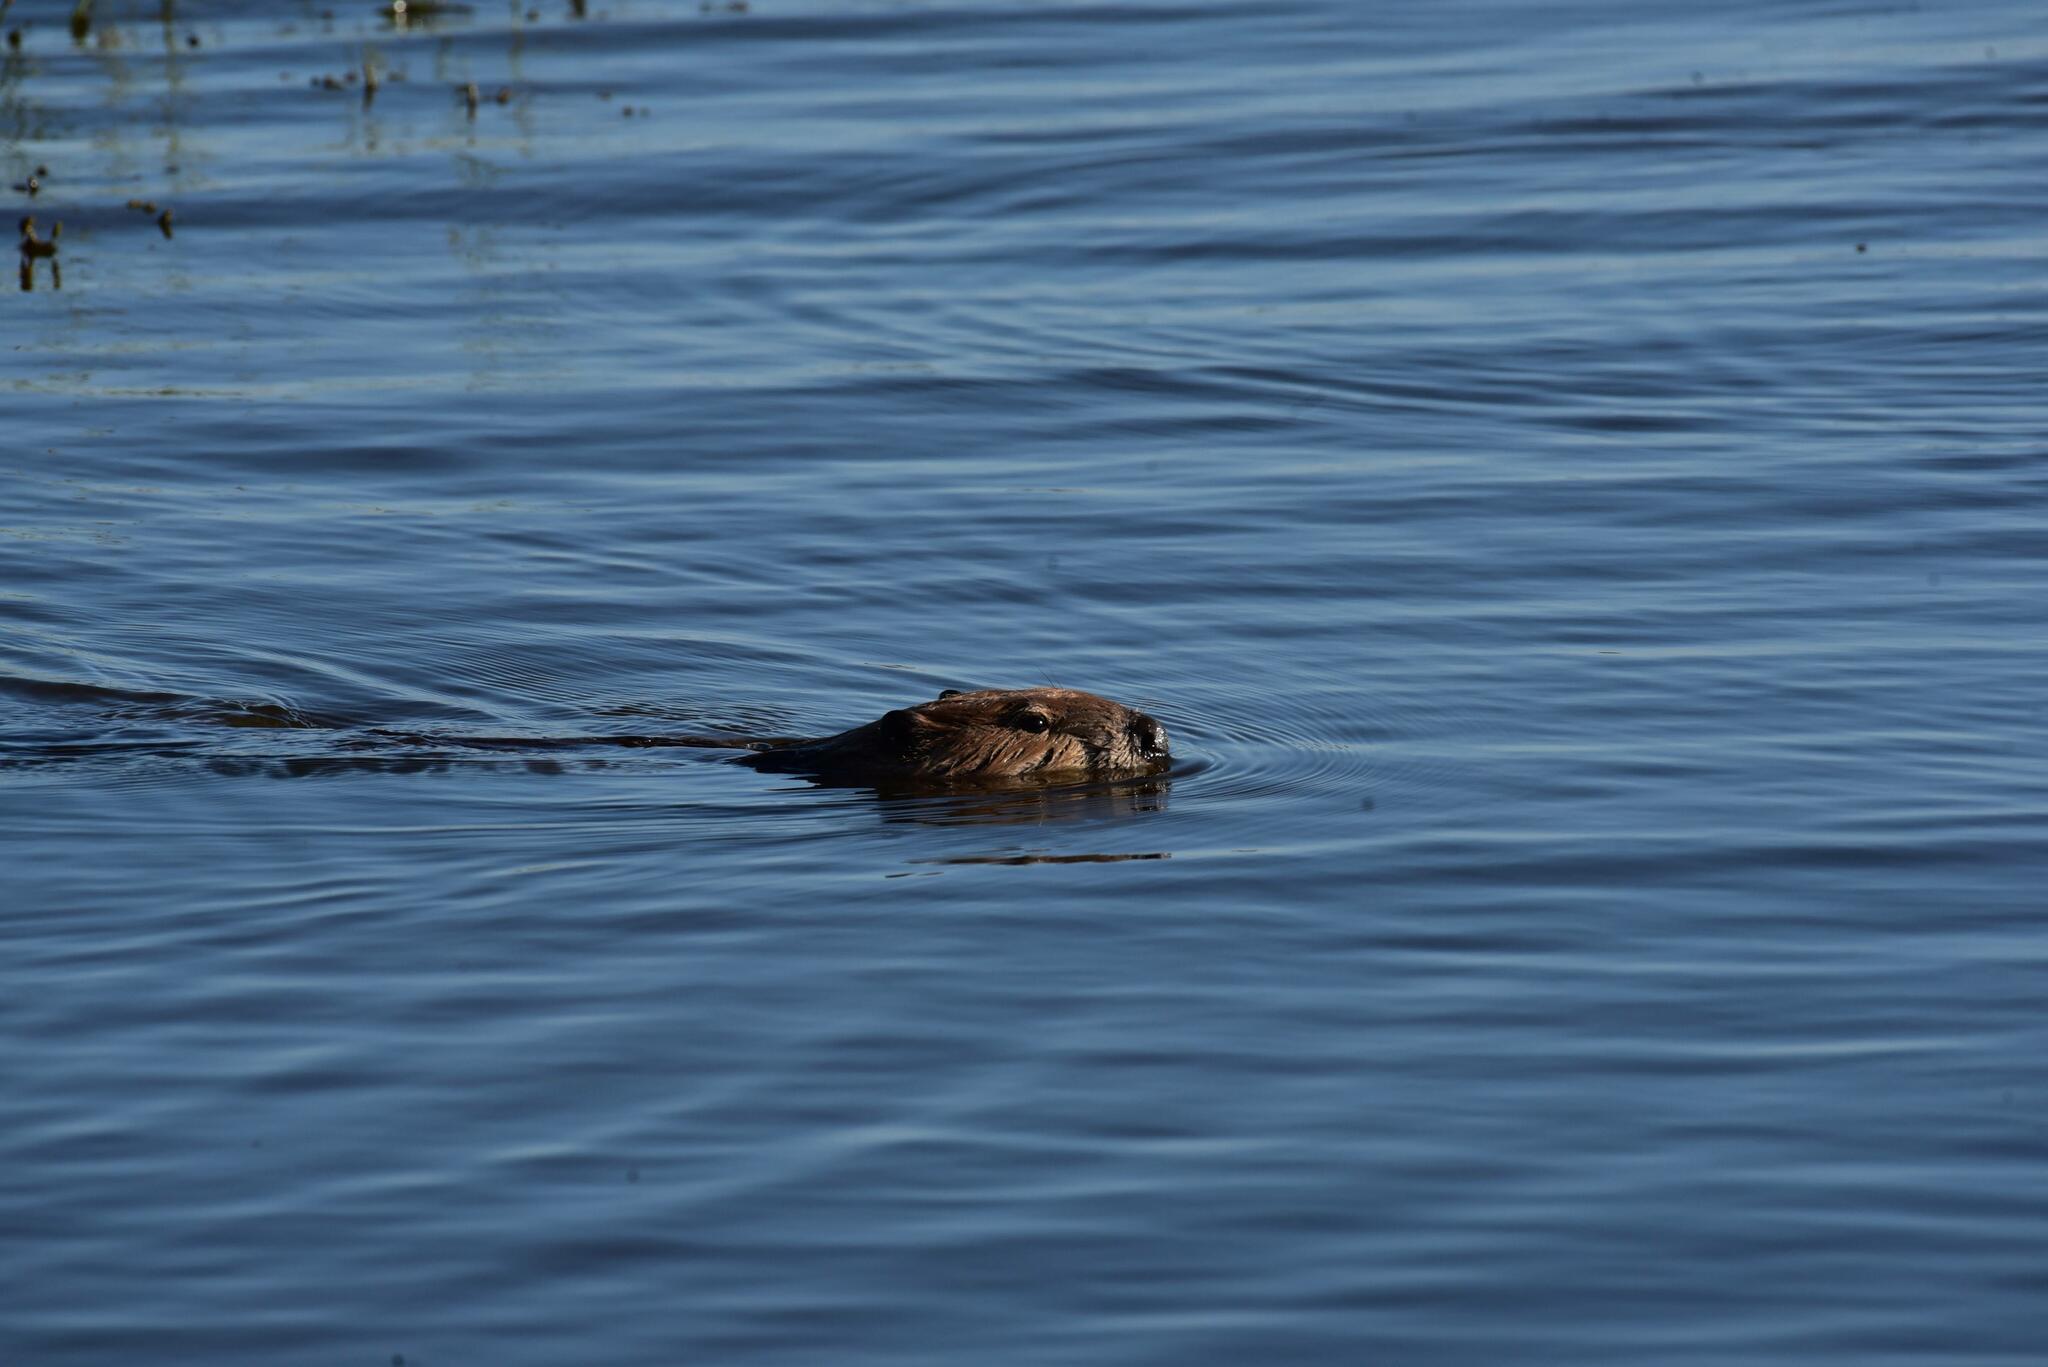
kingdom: Animalia
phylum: Chordata
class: Mammalia
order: Rodentia
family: Castoridae
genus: Castor
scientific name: Castor canadensis
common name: American beaver
